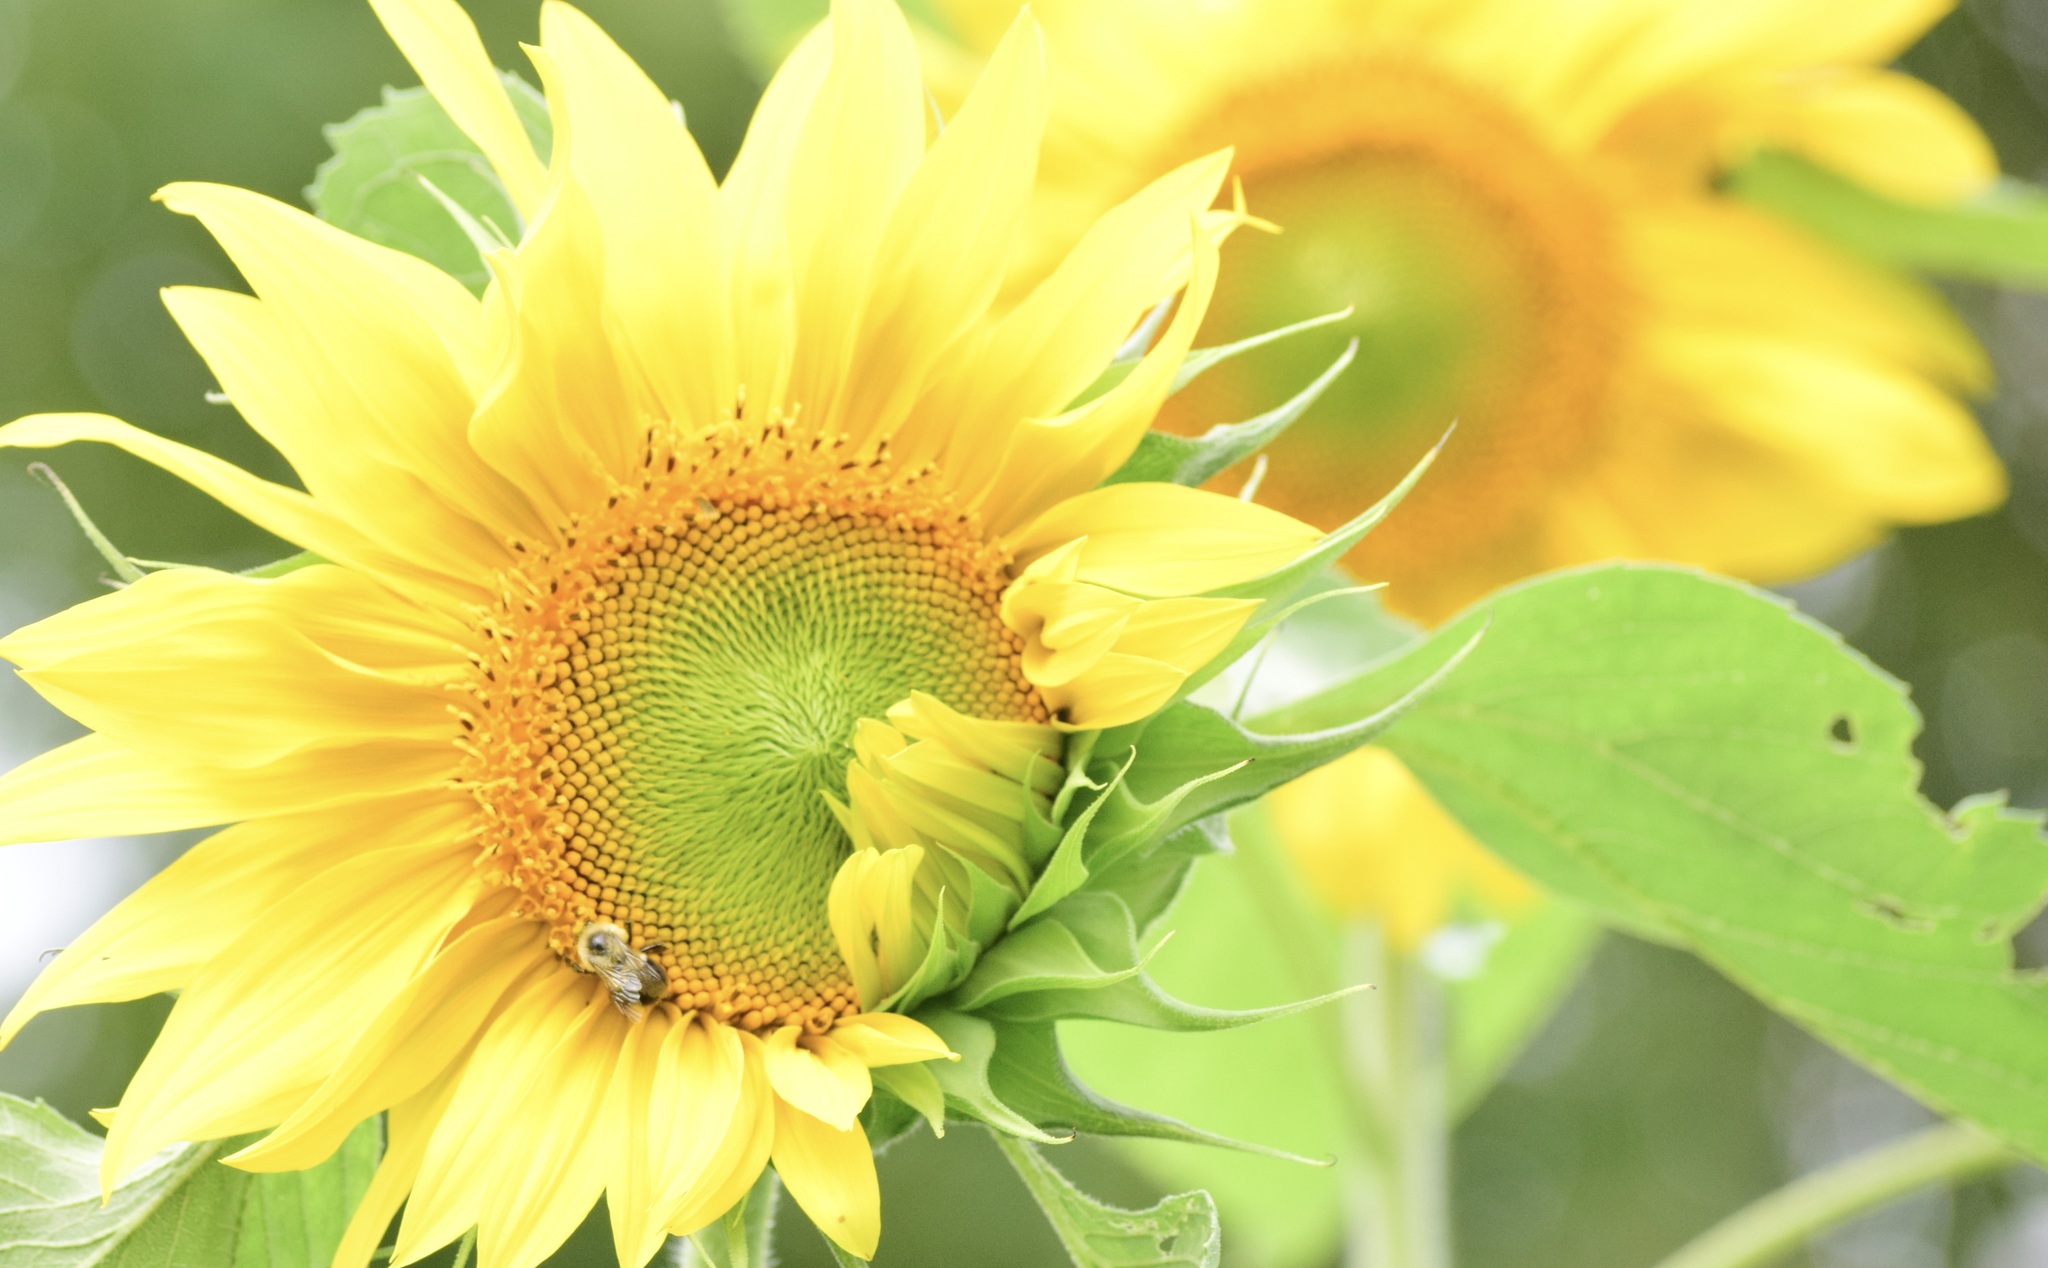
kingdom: Animalia
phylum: Arthropoda
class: Insecta
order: Hymenoptera
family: Apidae
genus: Bombus
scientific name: Bombus impatiens
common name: Common eastern bumble bee
